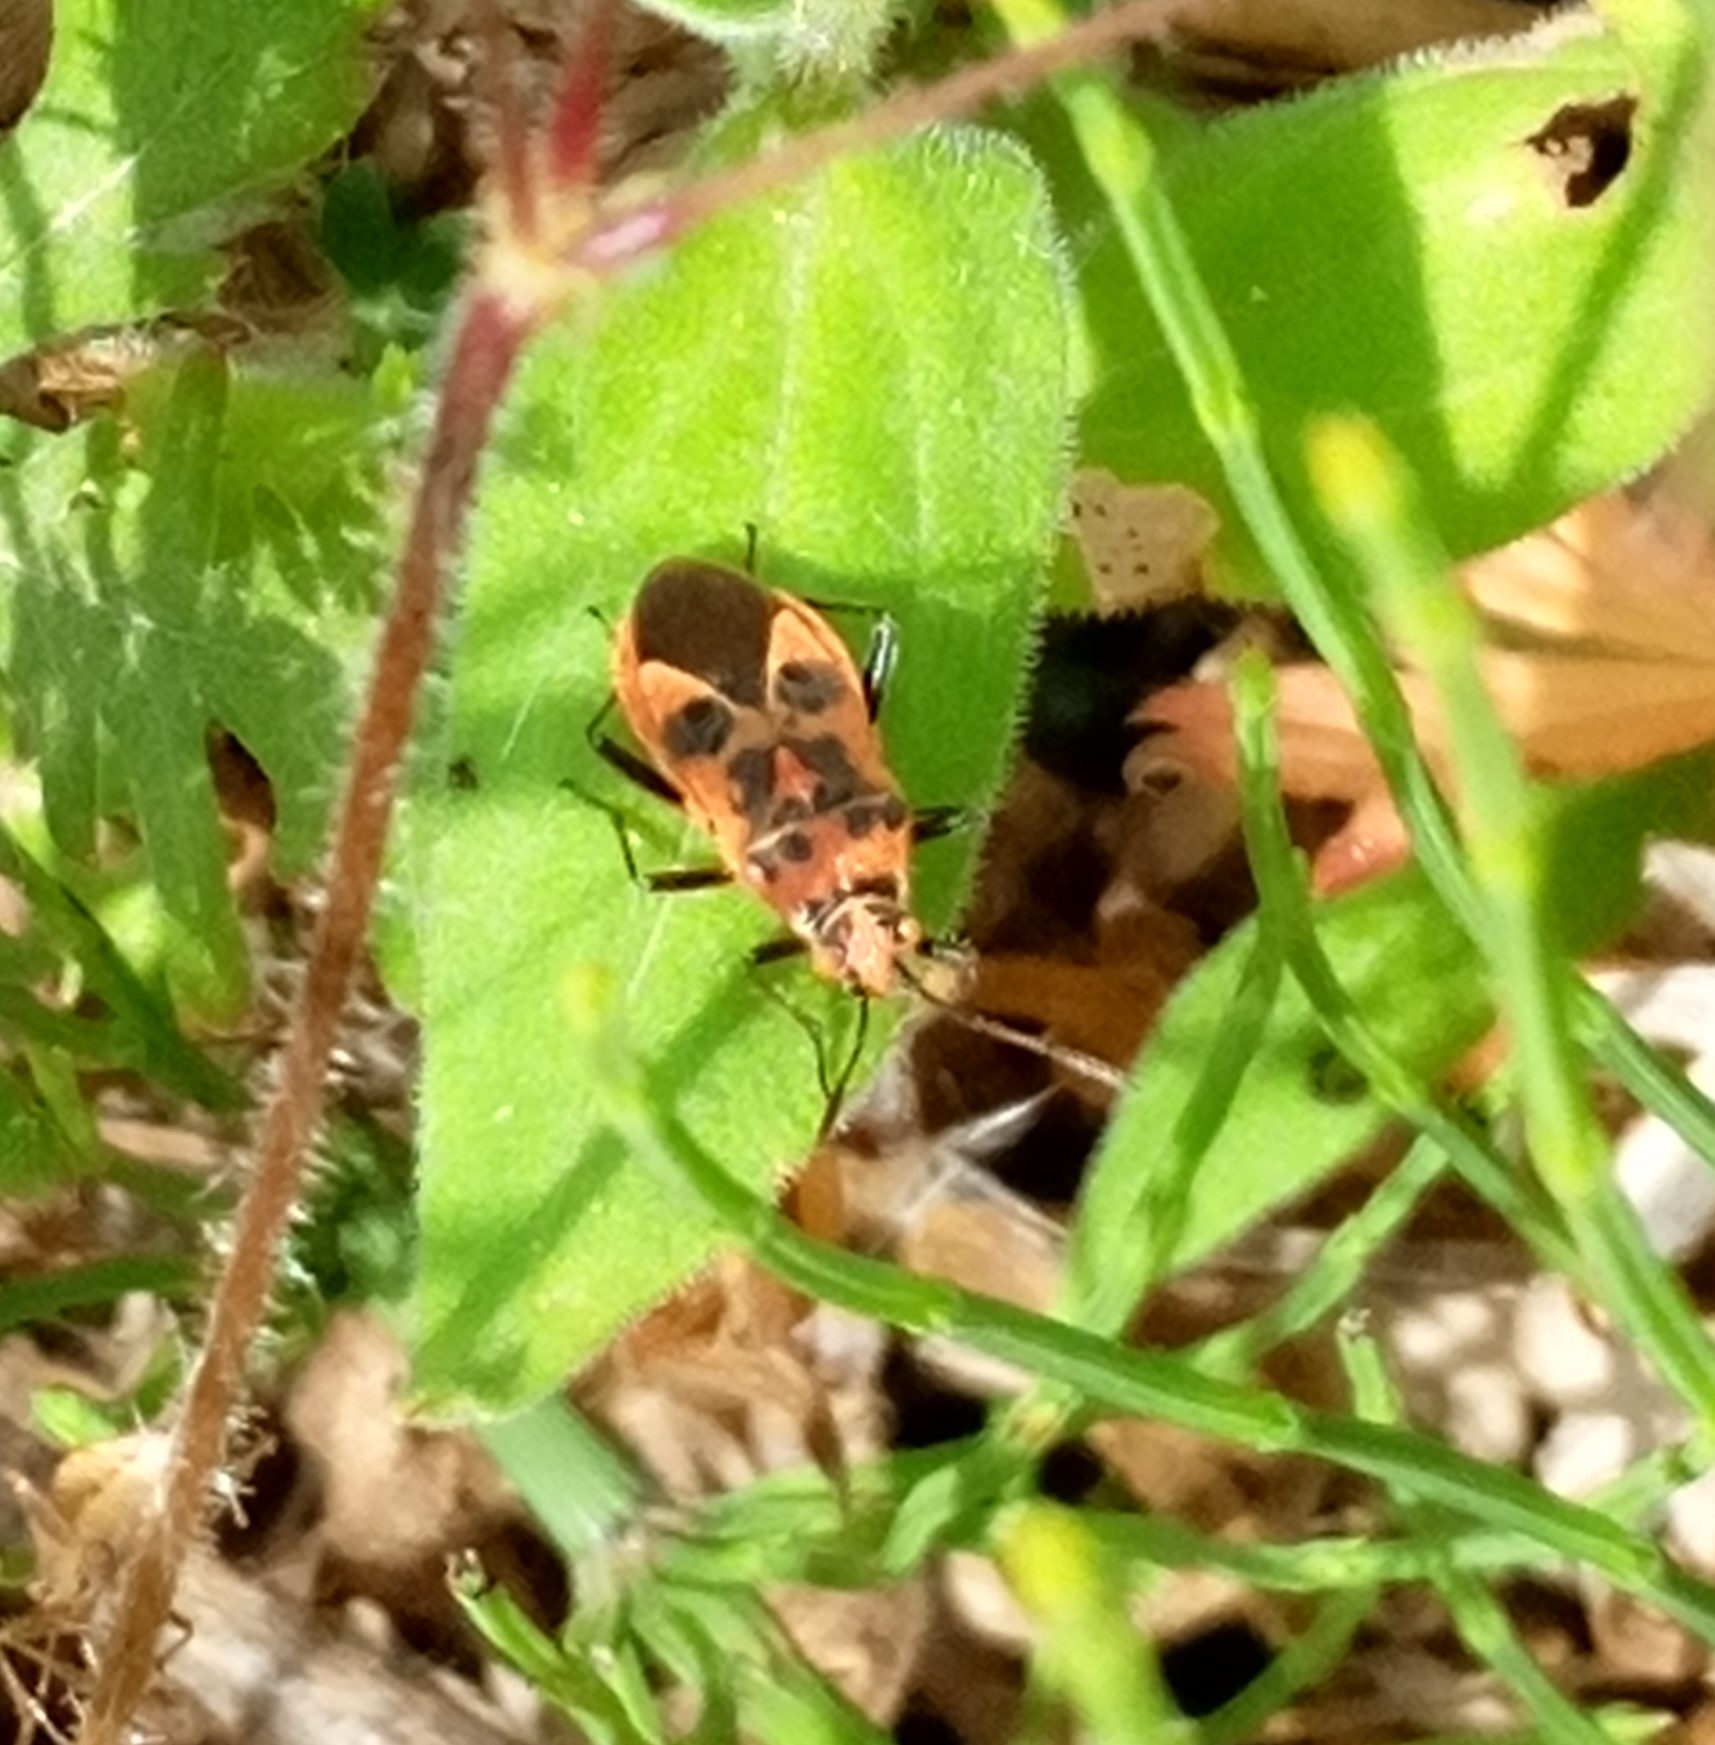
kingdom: Animalia
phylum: Arthropoda
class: Insecta
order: Hemiptera
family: Rhopalidae
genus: Corizus
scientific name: Corizus hyoscyami
